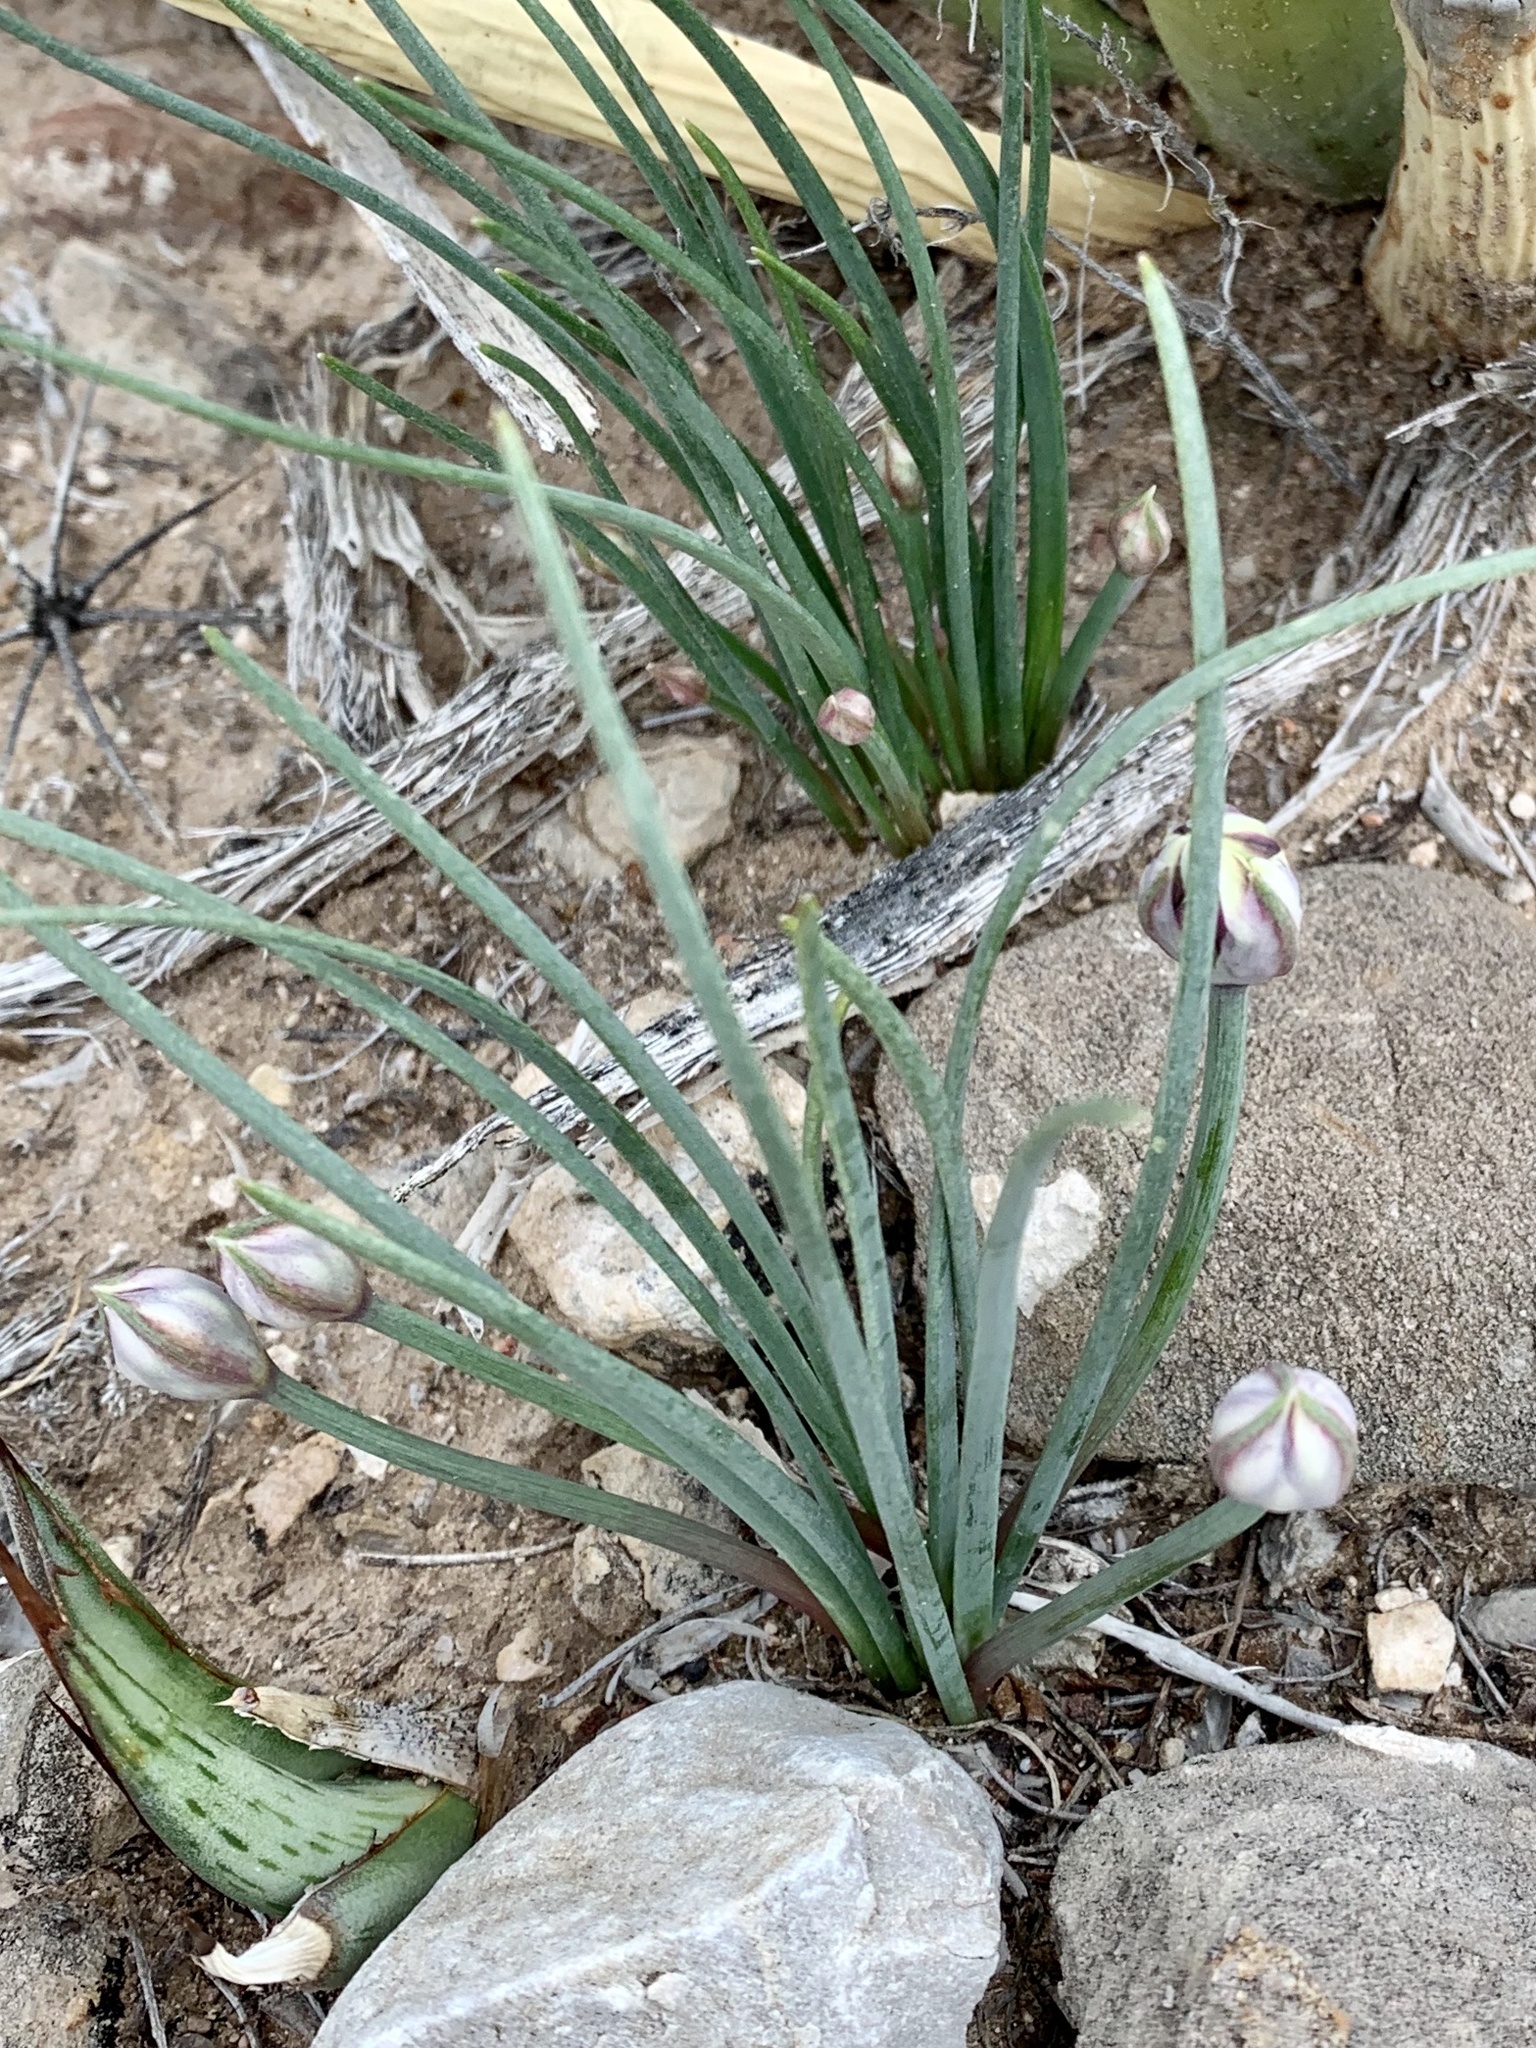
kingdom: Plantae
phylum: Tracheophyta
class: Liliopsida
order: Asparagales
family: Amaryllidaceae
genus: Allium
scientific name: Allium macropetalum
